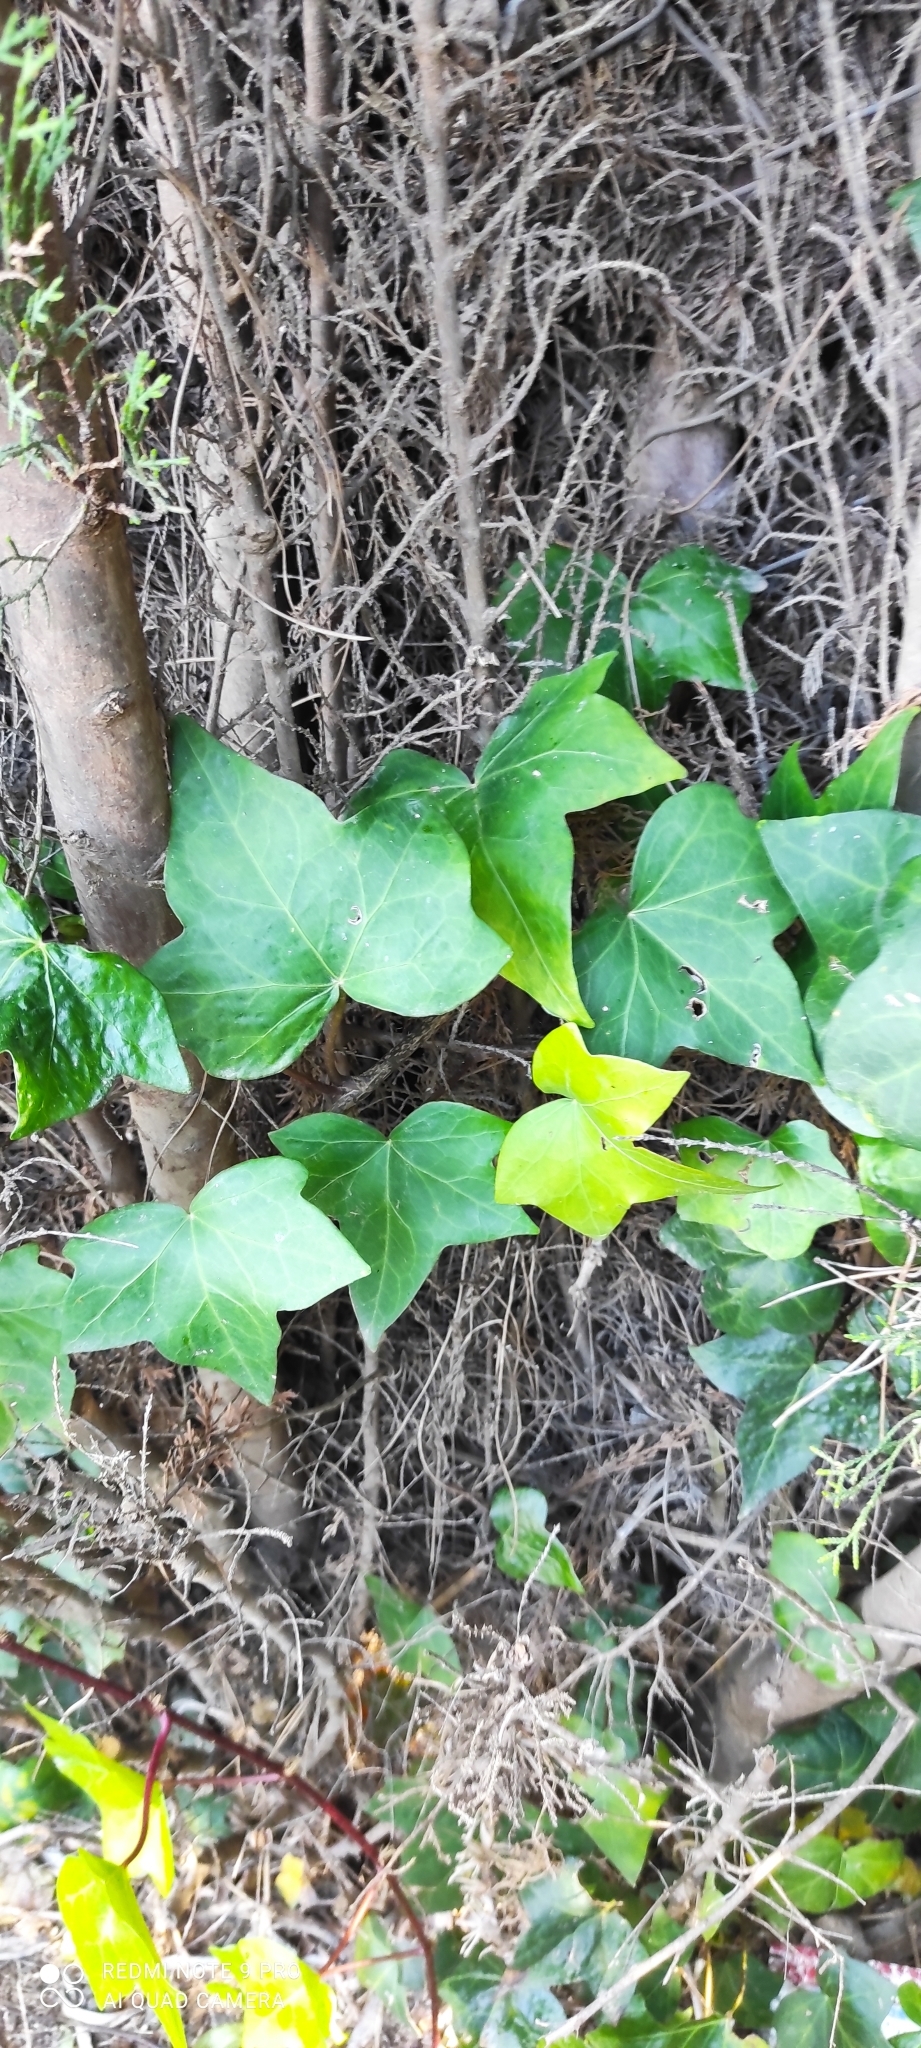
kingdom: Plantae
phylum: Tracheophyta
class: Magnoliopsida
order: Apiales
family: Araliaceae
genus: Hedera
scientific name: Hedera helix
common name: Ivy
